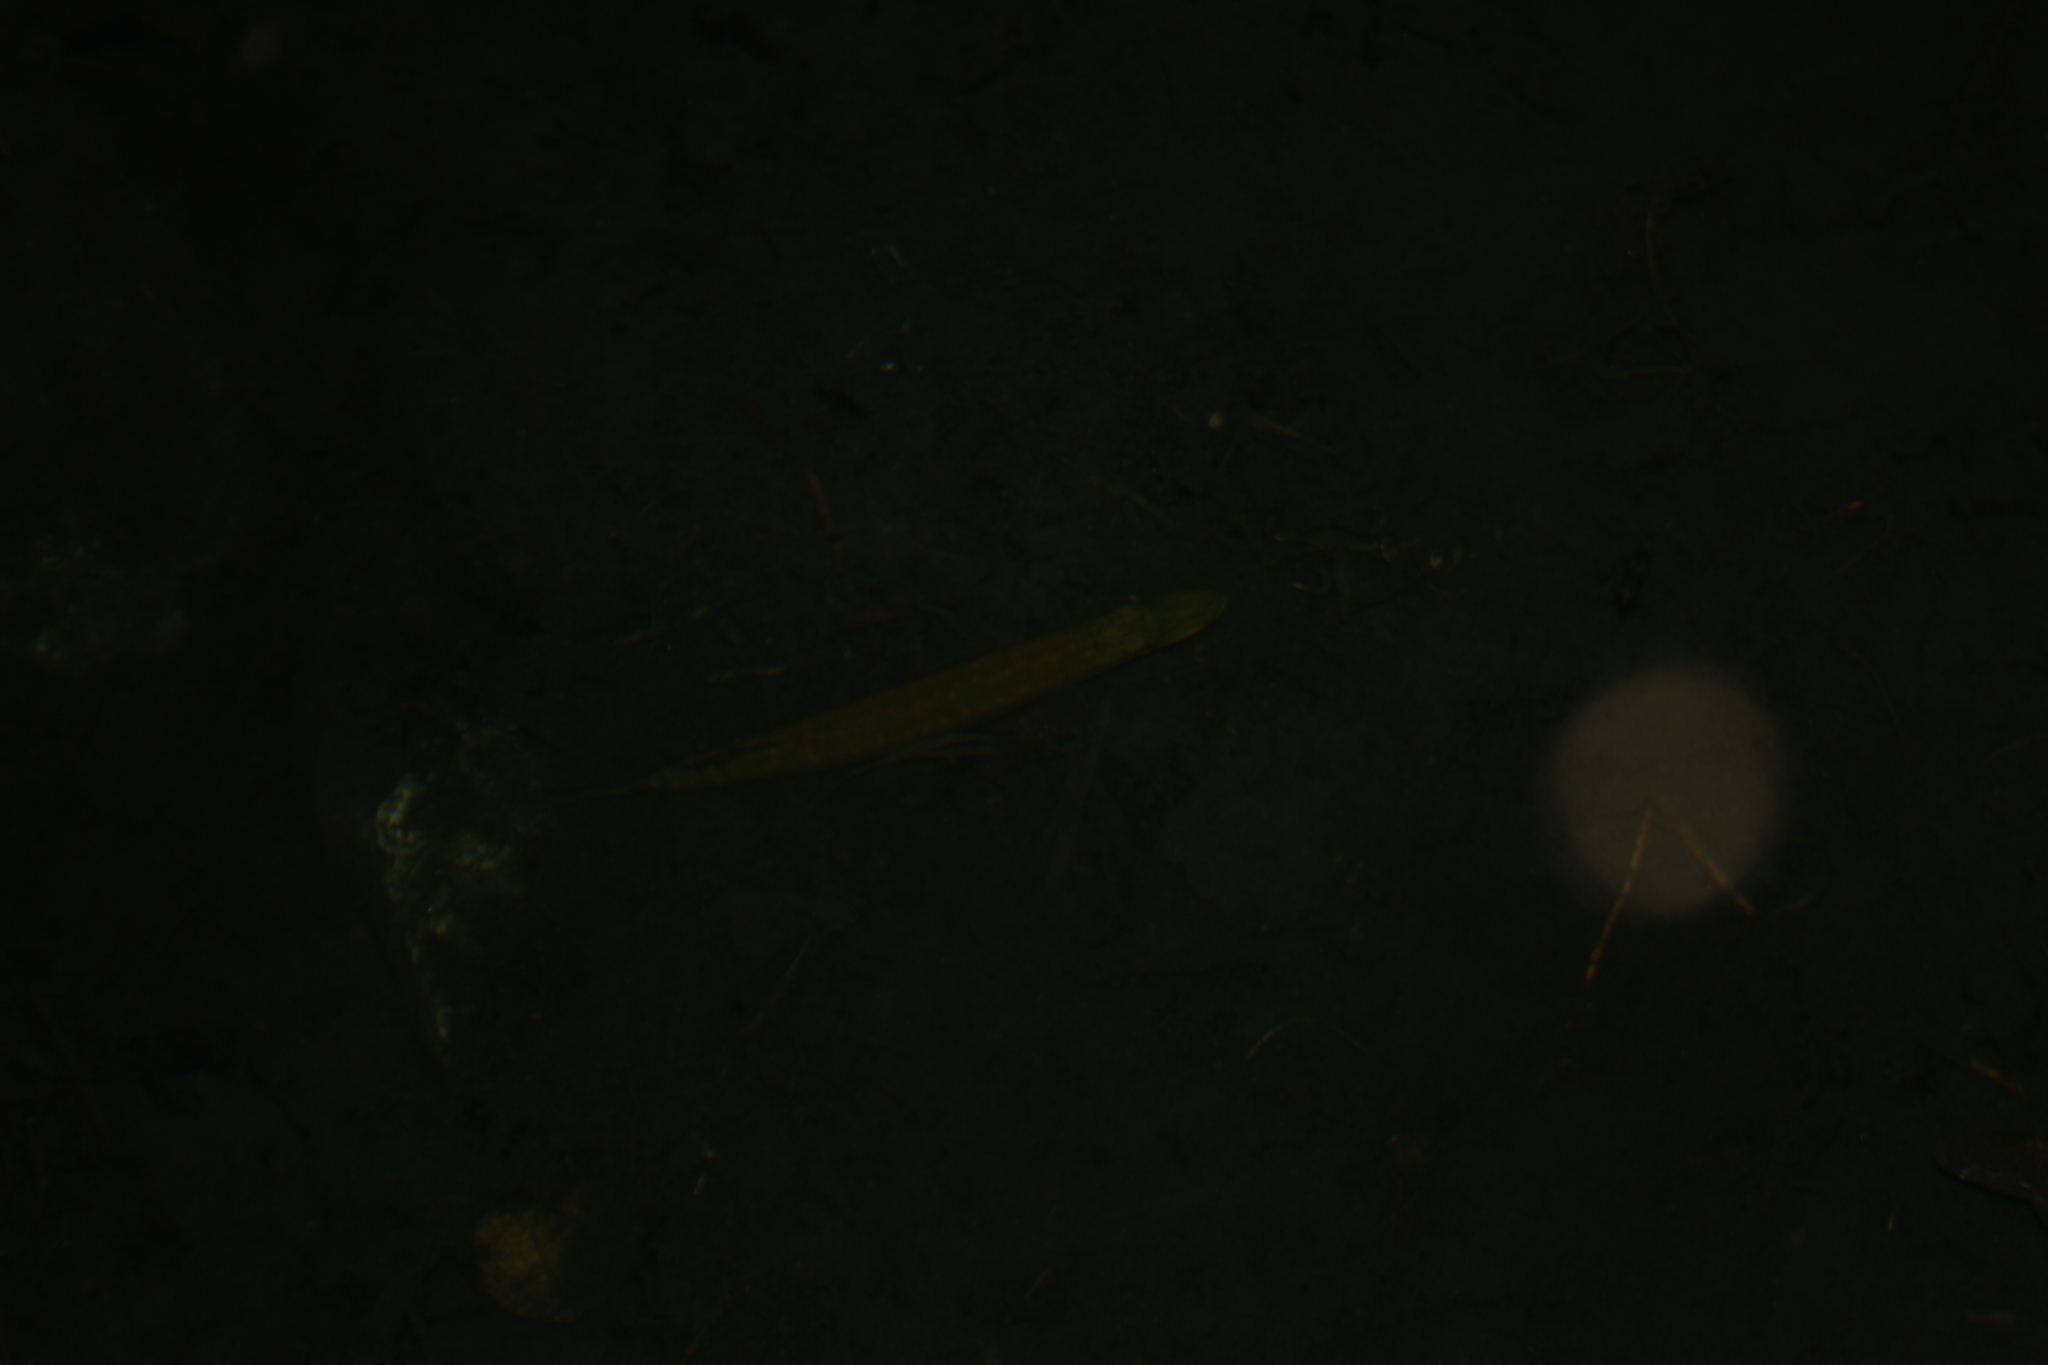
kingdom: Animalia
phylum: Chordata
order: Esociformes
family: Esocidae
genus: Esox
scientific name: Esox lucius
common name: Northern pike
